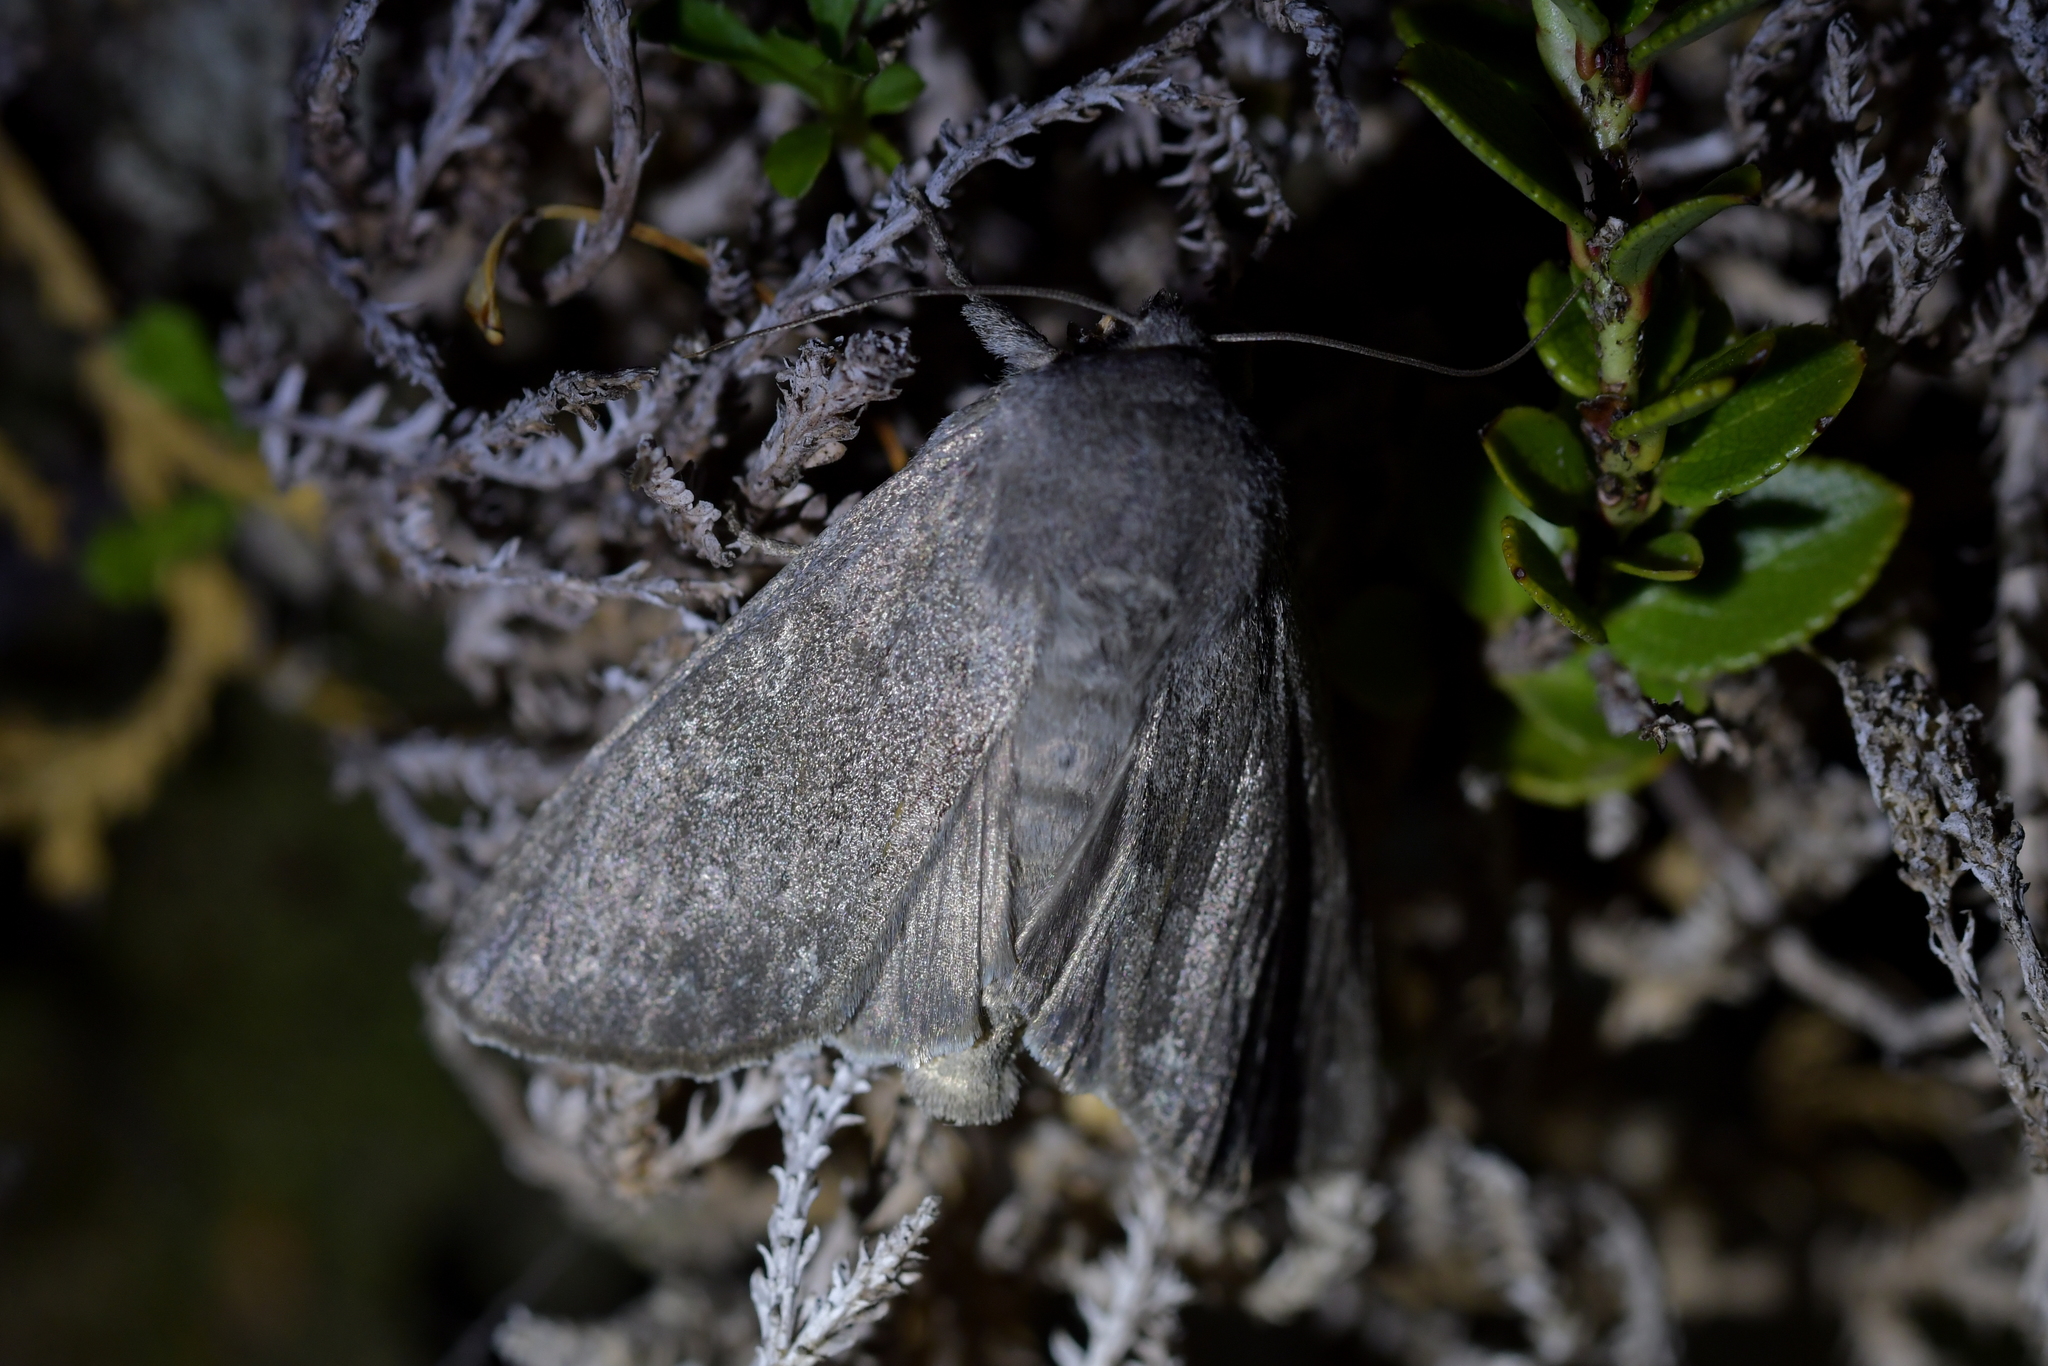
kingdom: Animalia
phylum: Arthropoda
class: Insecta
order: Lepidoptera
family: Noctuidae
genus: Ichneutica
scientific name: Ichneutica nullifera
